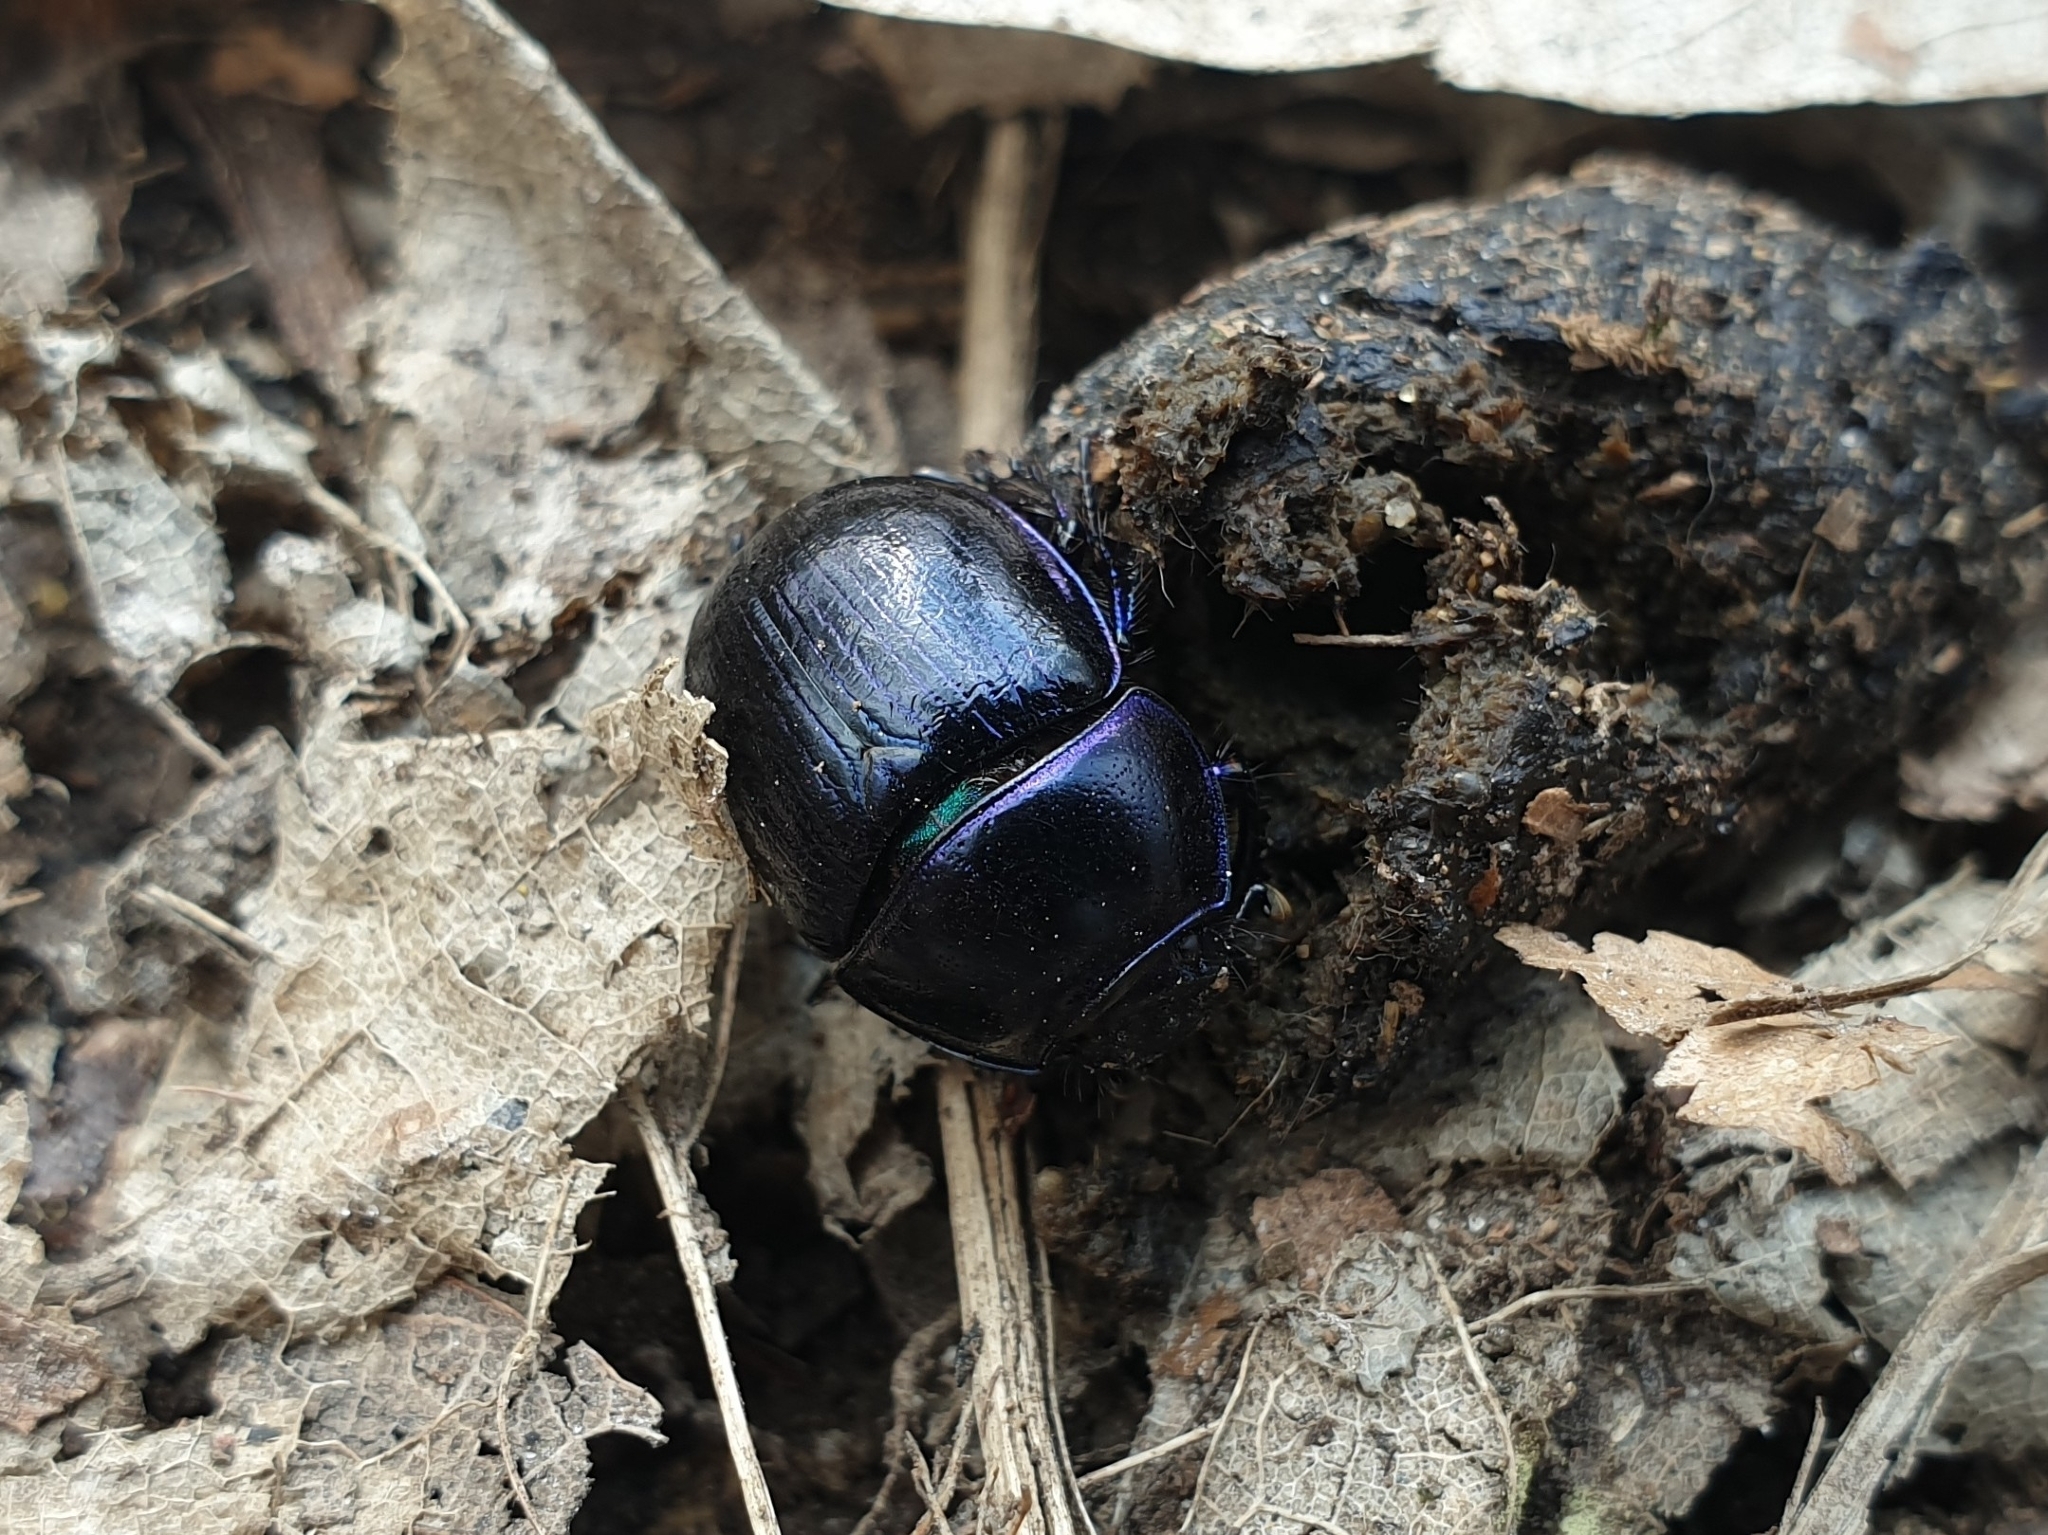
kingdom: Animalia
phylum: Arthropoda
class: Insecta
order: Coleoptera
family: Geotrupidae
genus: Anoplotrupes
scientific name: Anoplotrupes stercorosus
